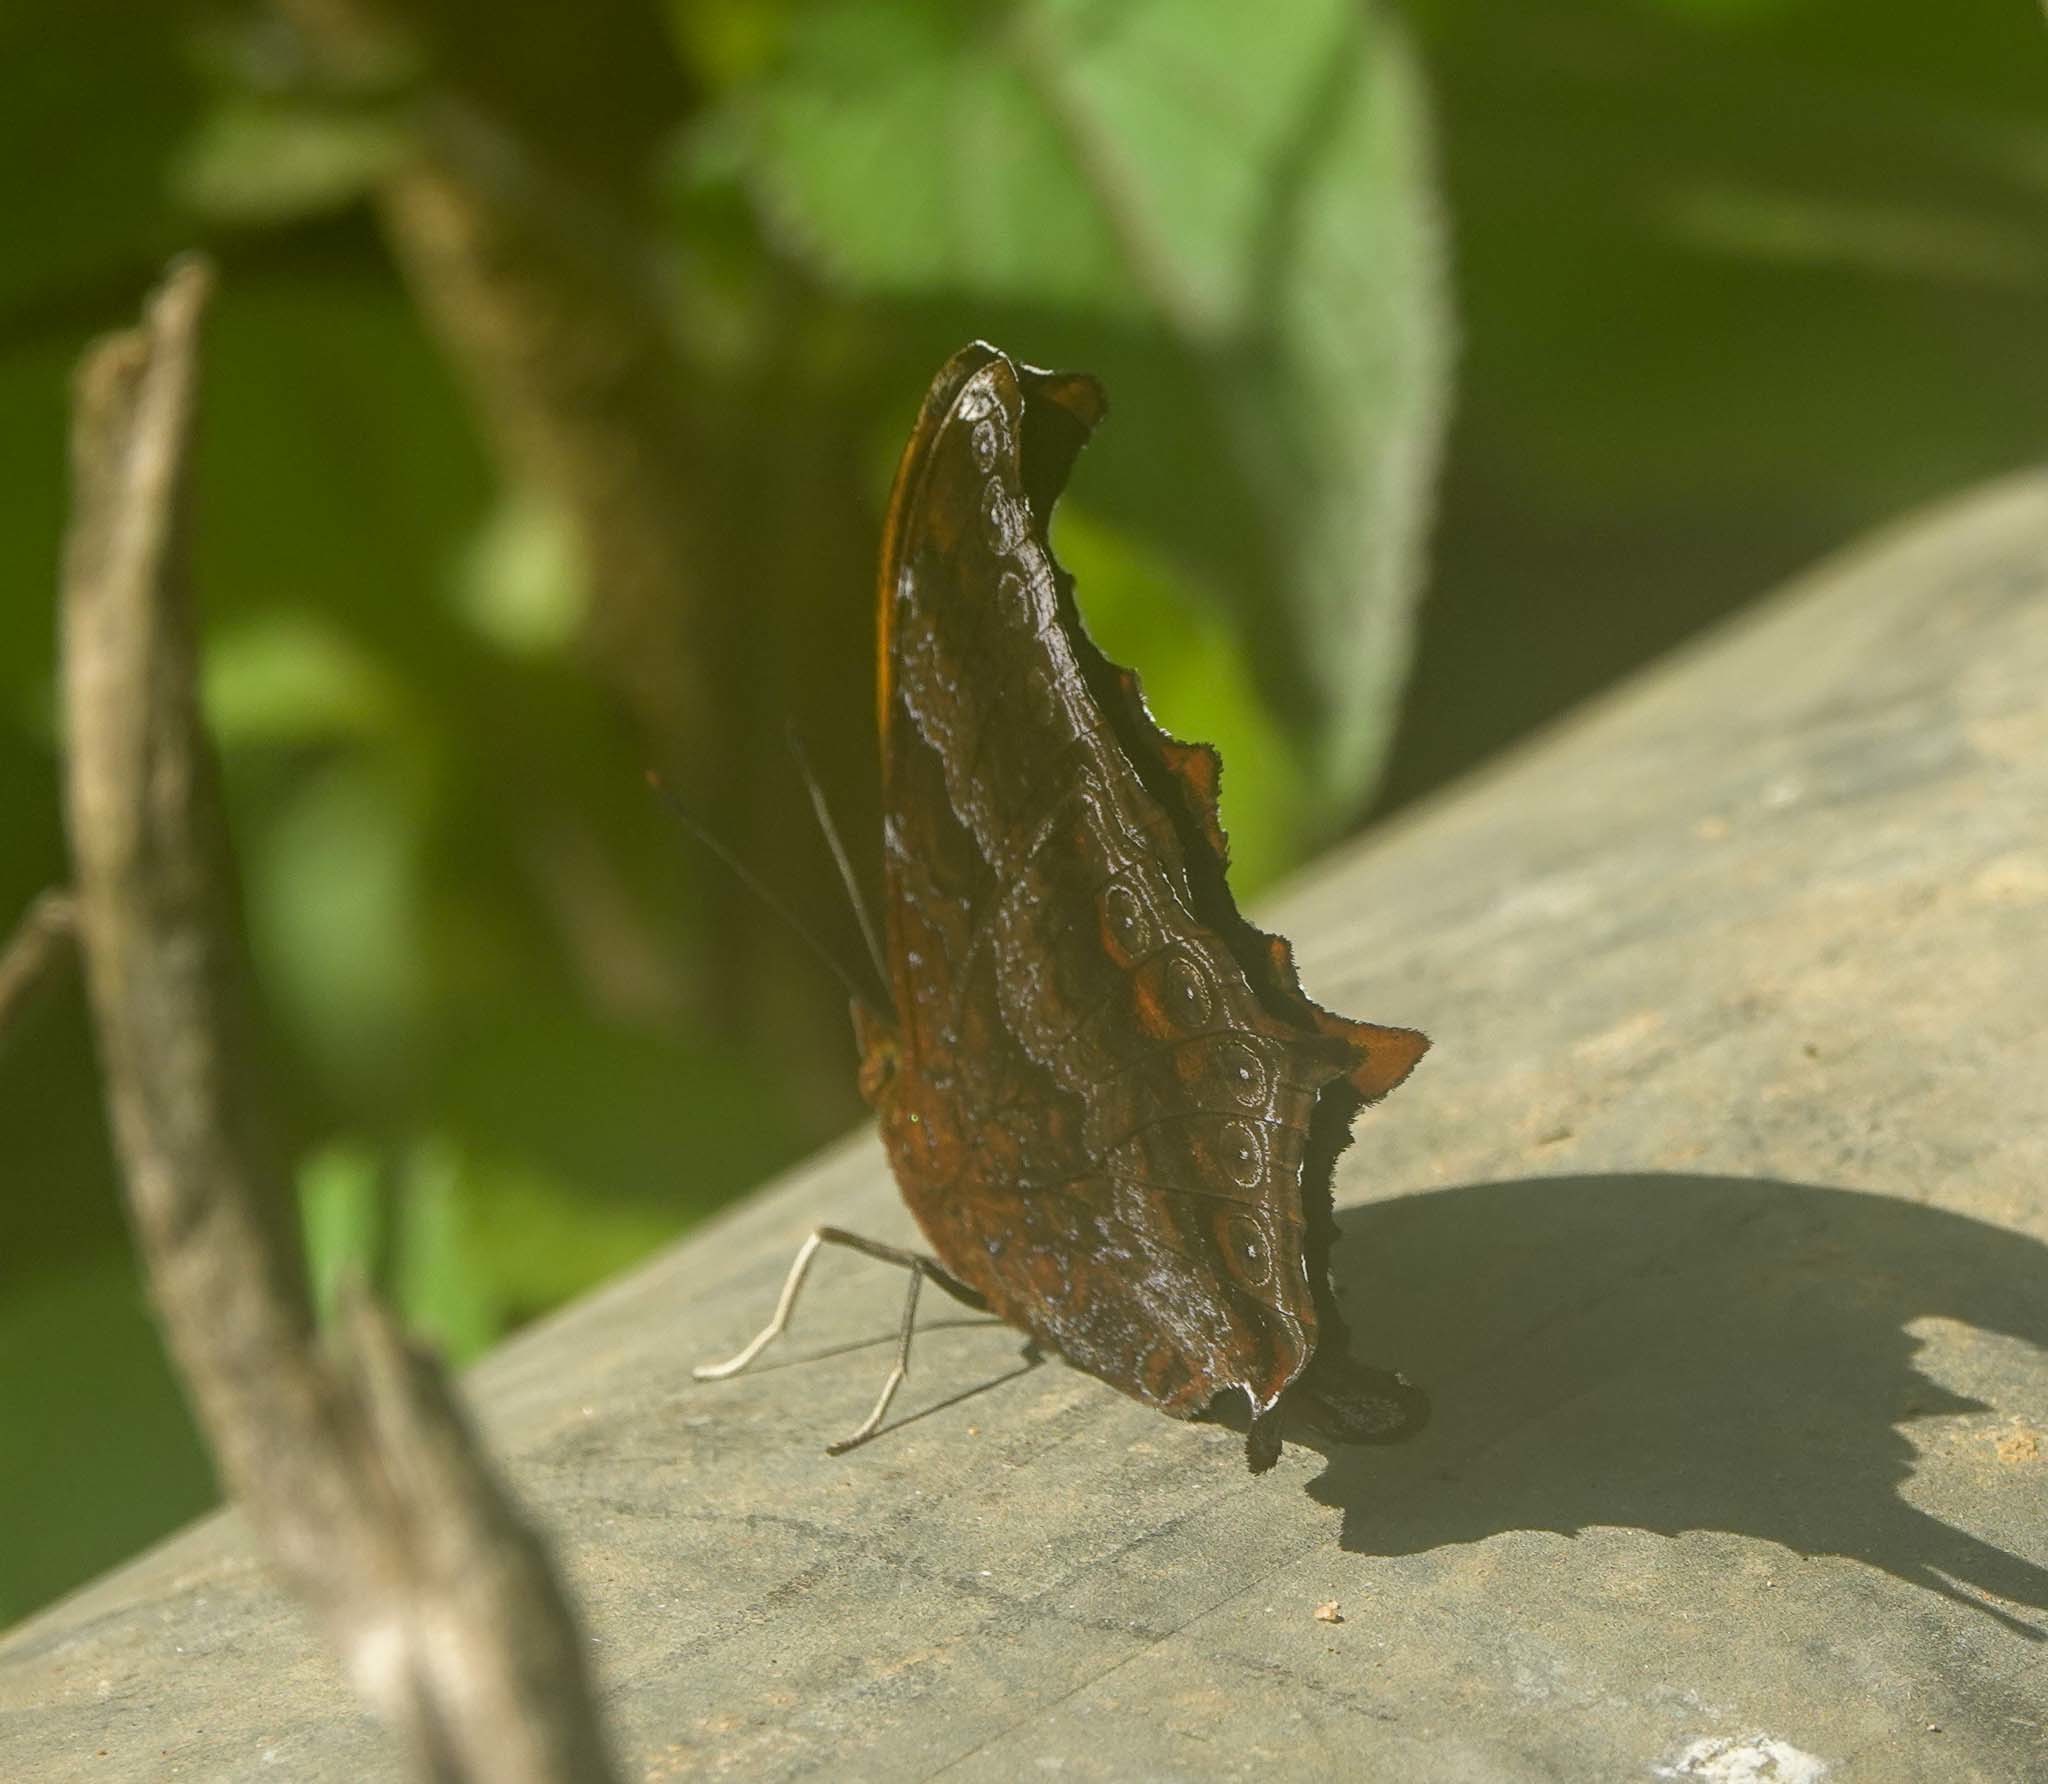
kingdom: Animalia
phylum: Arthropoda
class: Insecta
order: Lepidoptera
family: Nymphalidae
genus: Rhinopalpa
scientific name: Rhinopalpa polynice
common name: Wizard
